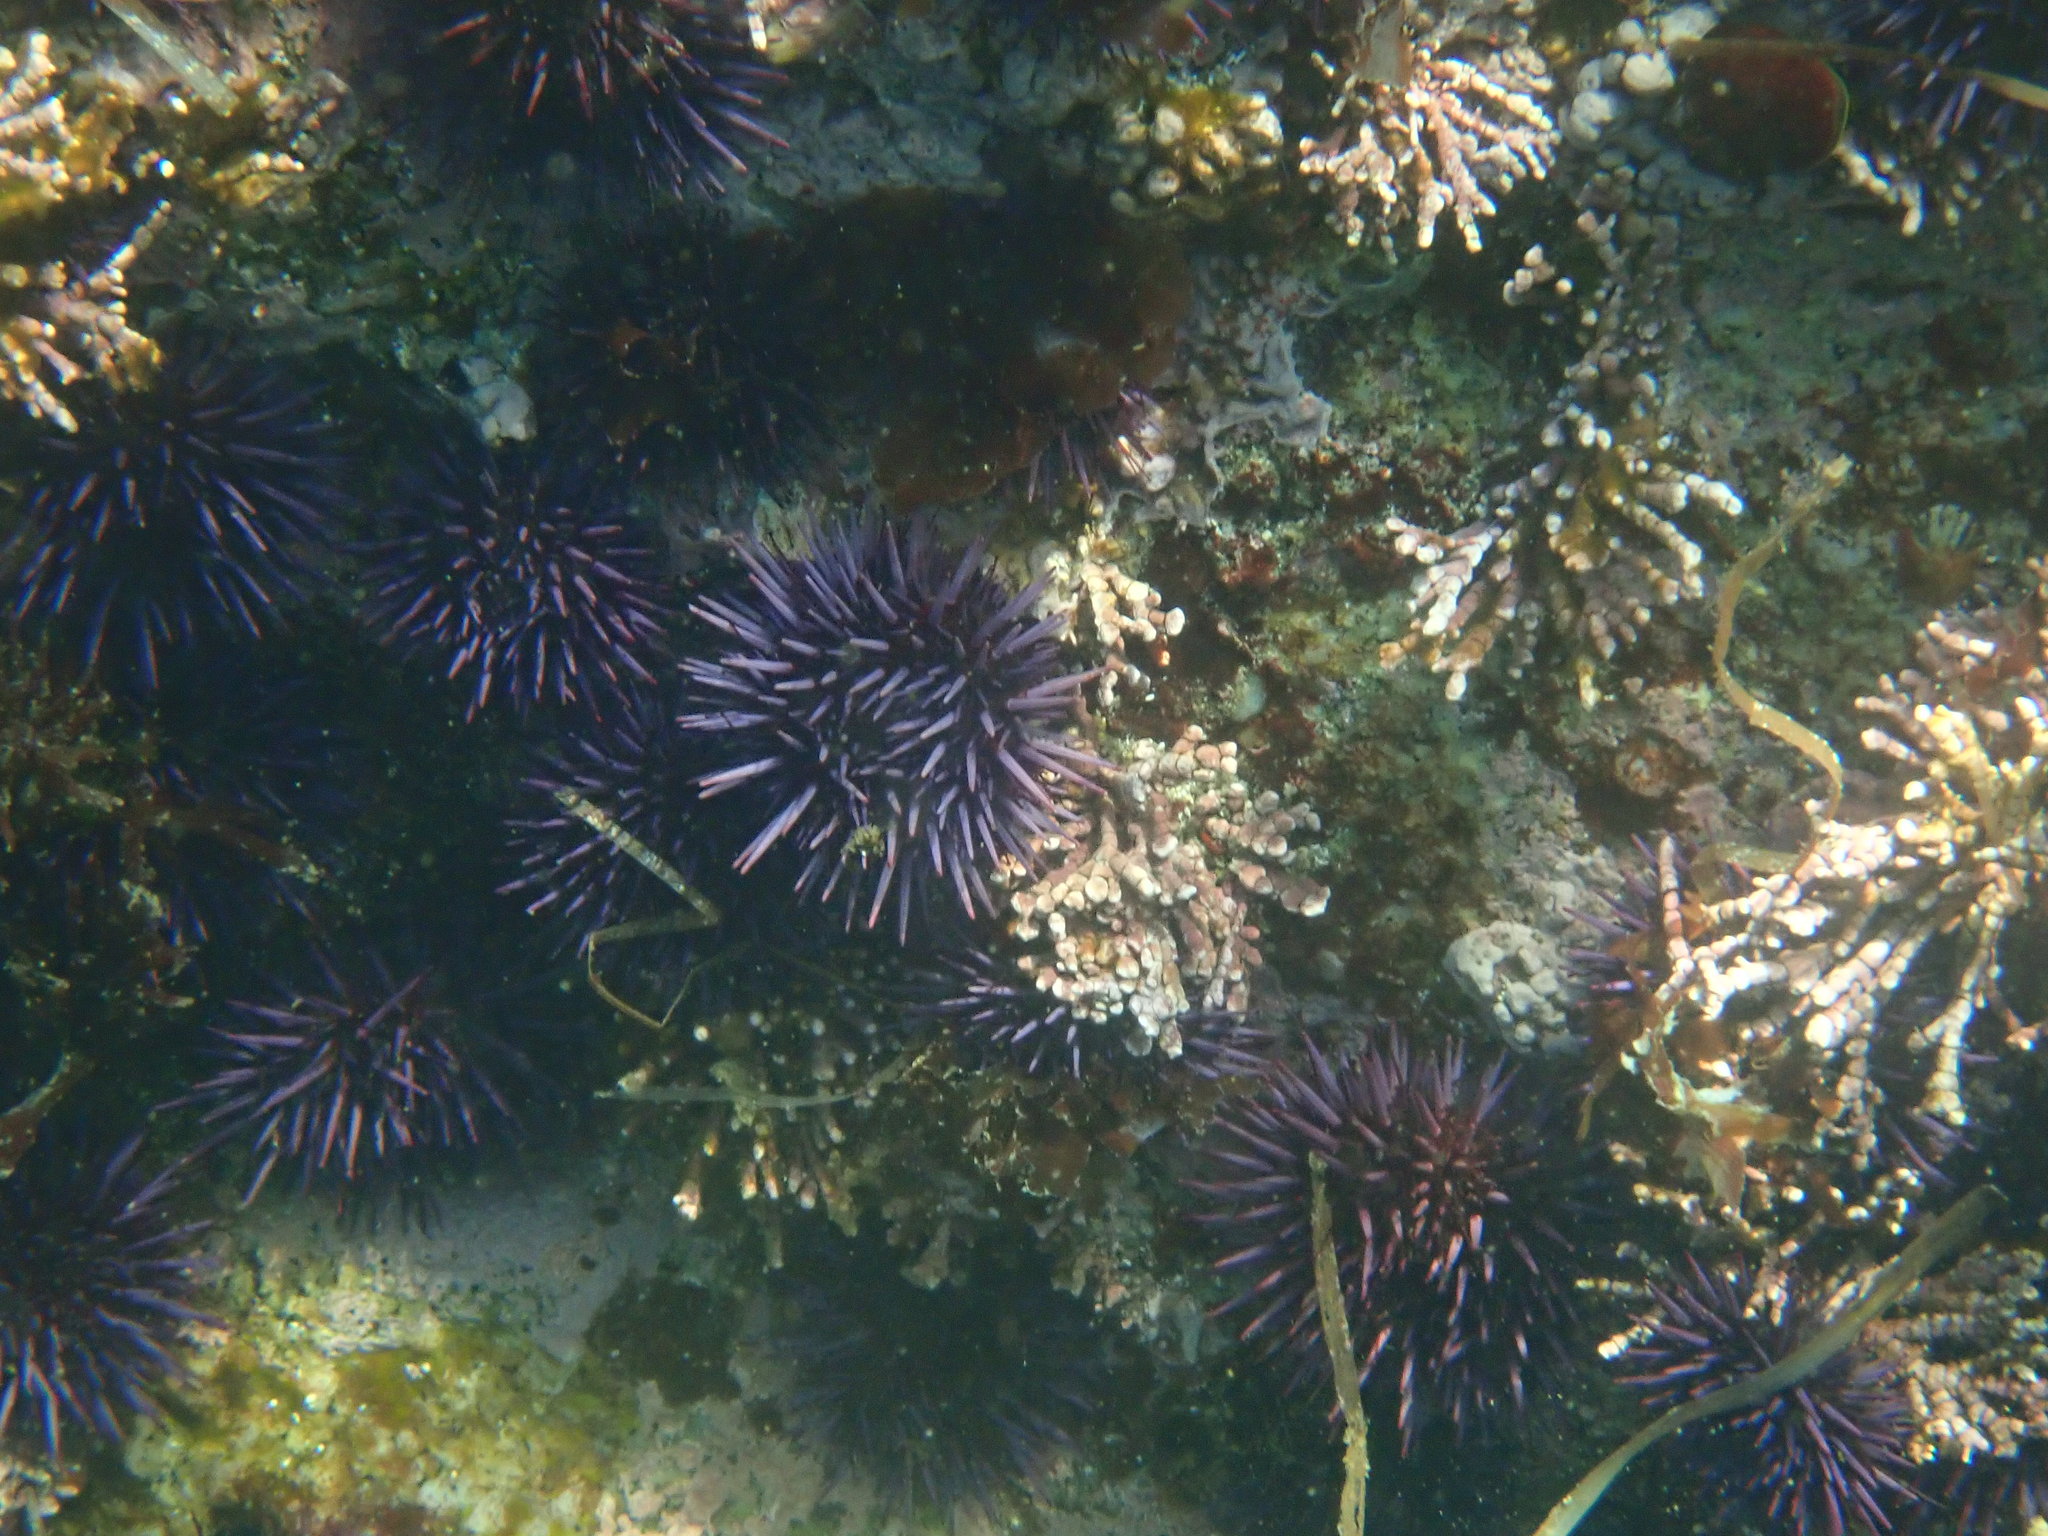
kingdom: Animalia
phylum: Echinodermata
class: Echinoidea
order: Camarodonta
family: Strongylocentrotidae
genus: Strongylocentrotus
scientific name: Strongylocentrotus purpuratus
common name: Purple sea urchin
